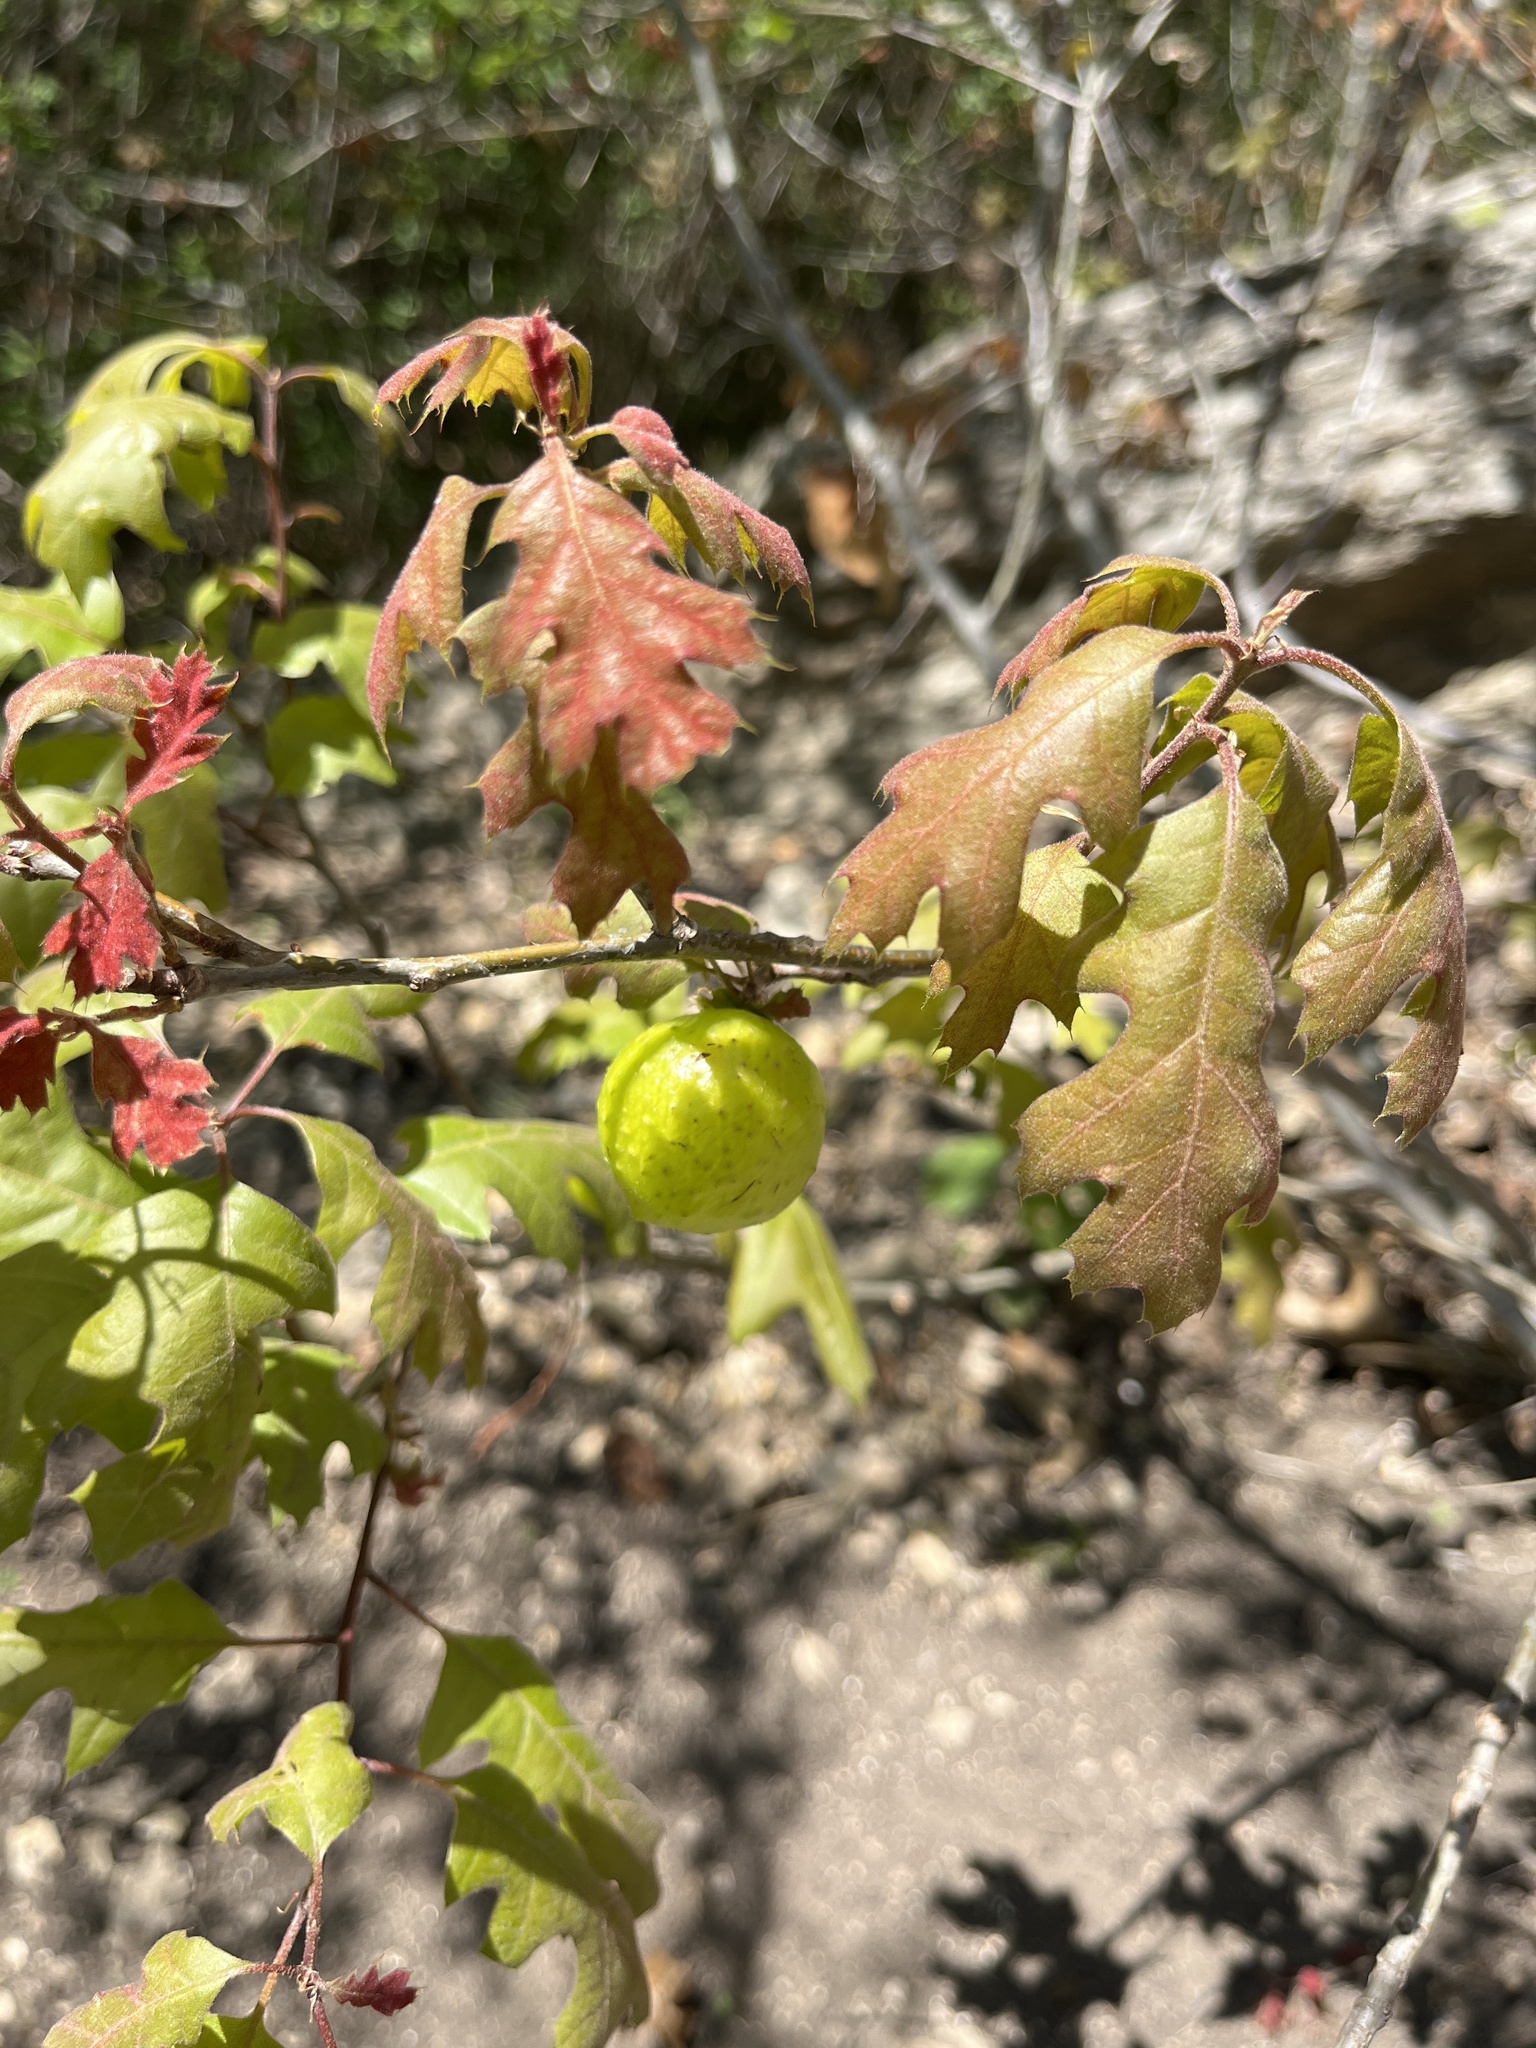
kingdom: Animalia
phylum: Arthropoda
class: Insecta
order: Hymenoptera
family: Cynipidae
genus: Amphibolips
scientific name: Amphibolips
